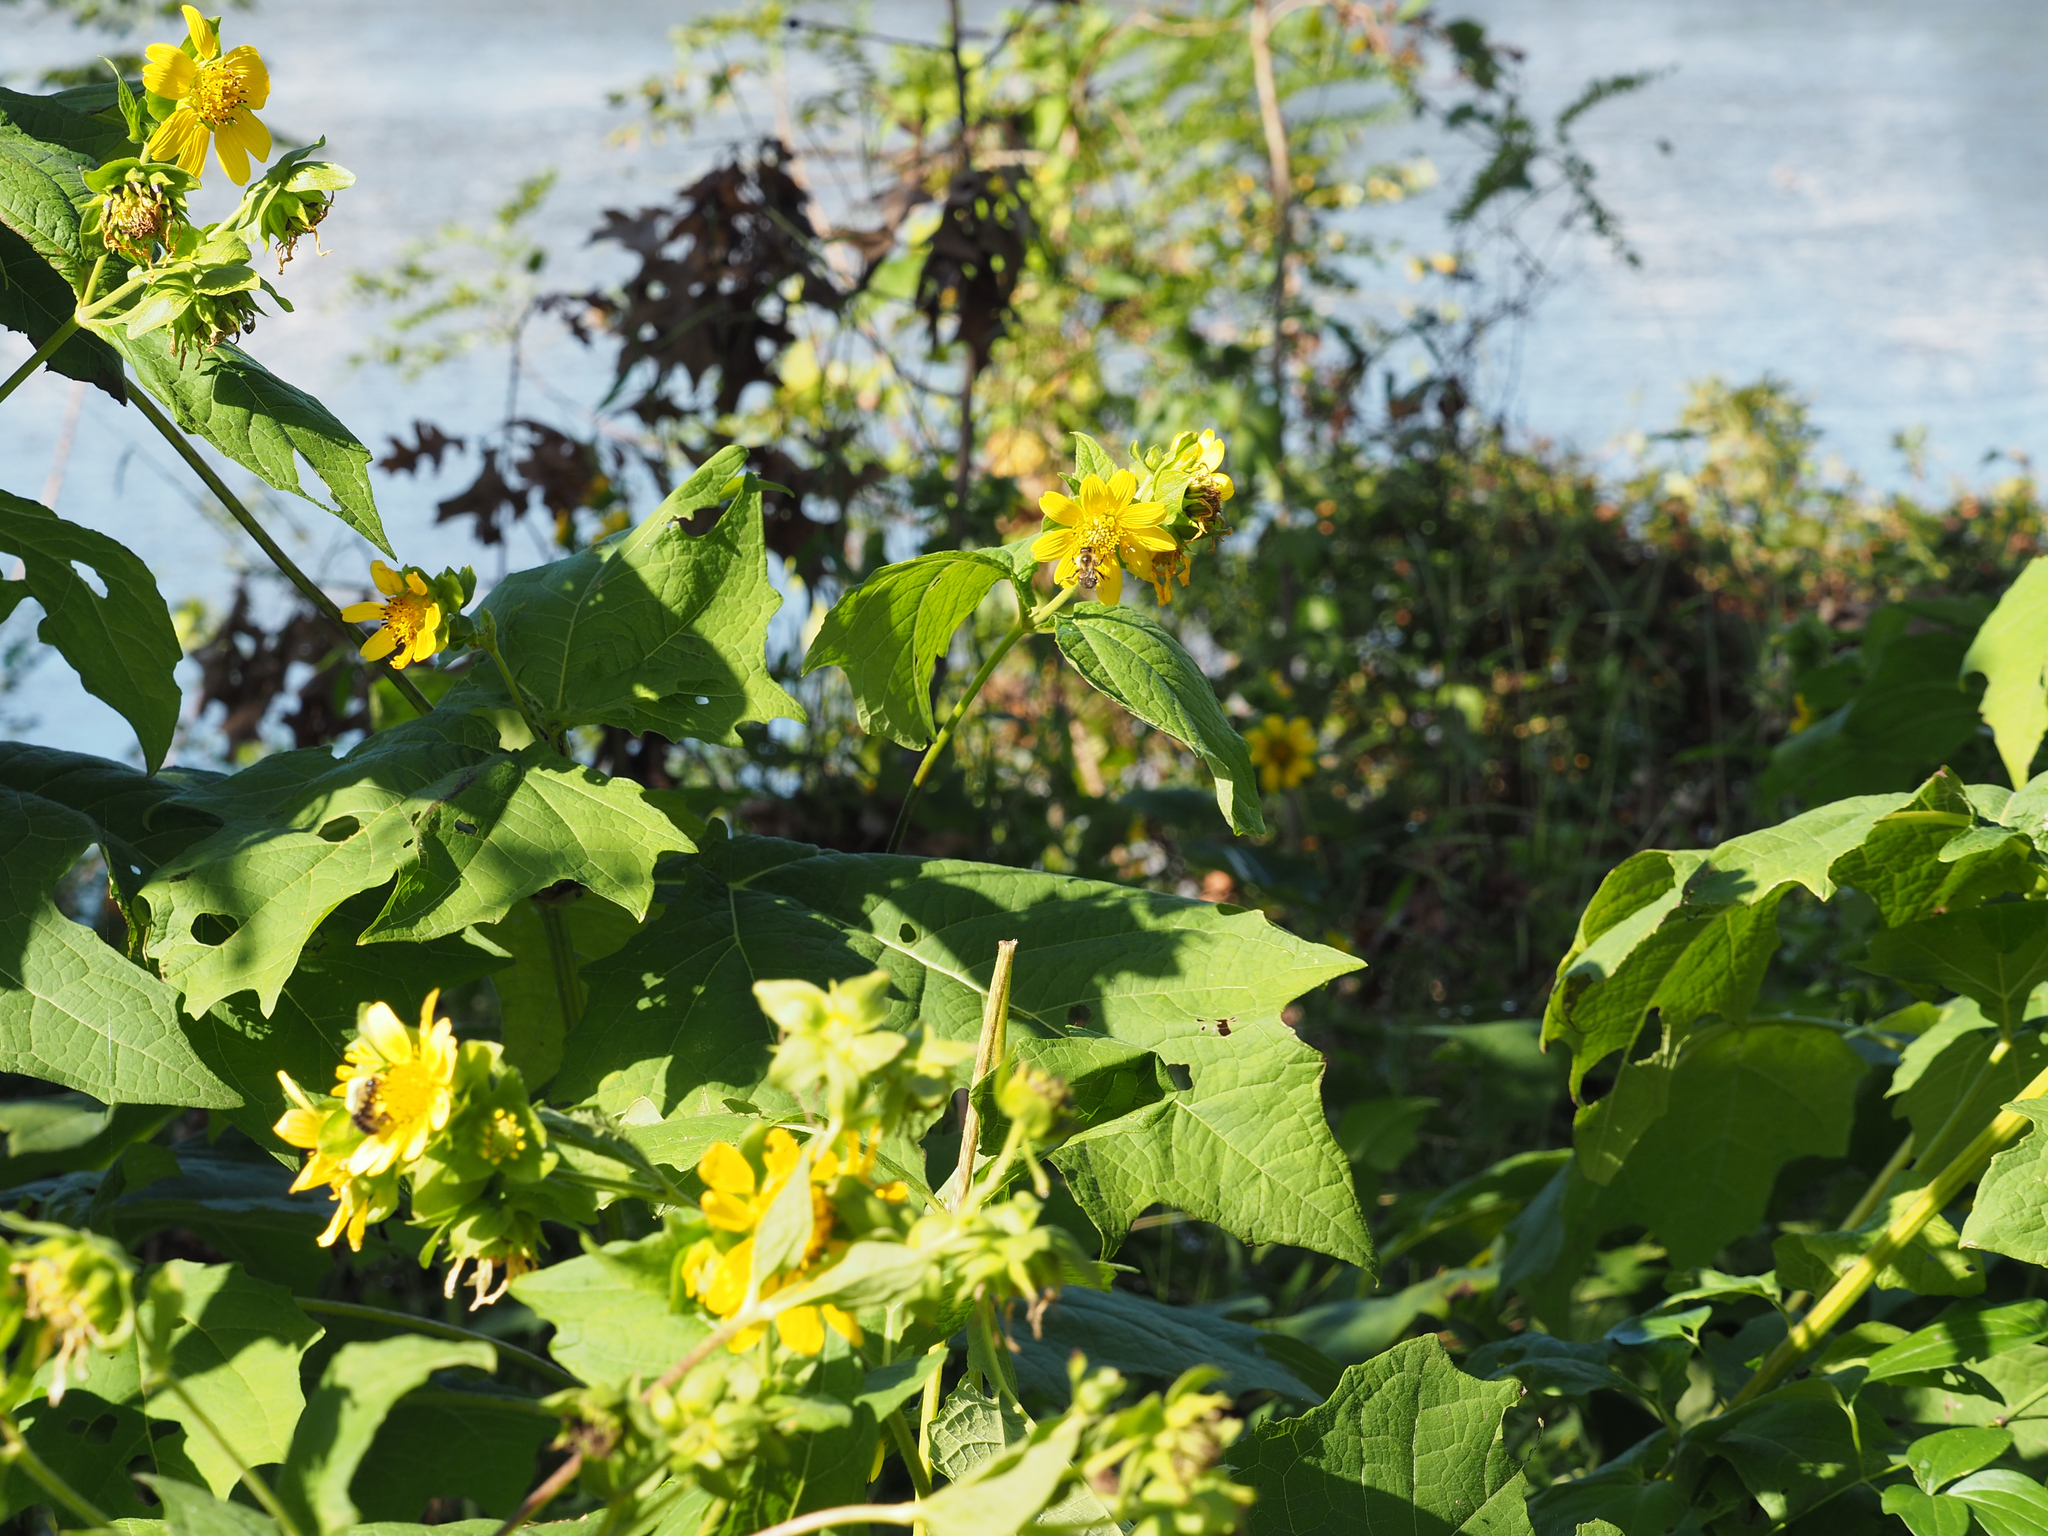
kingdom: Plantae
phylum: Tracheophyta
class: Magnoliopsida
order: Asterales
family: Asteraceae
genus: Smallanthus
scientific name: Smallanthus uvedalia
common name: Bear's-foot
